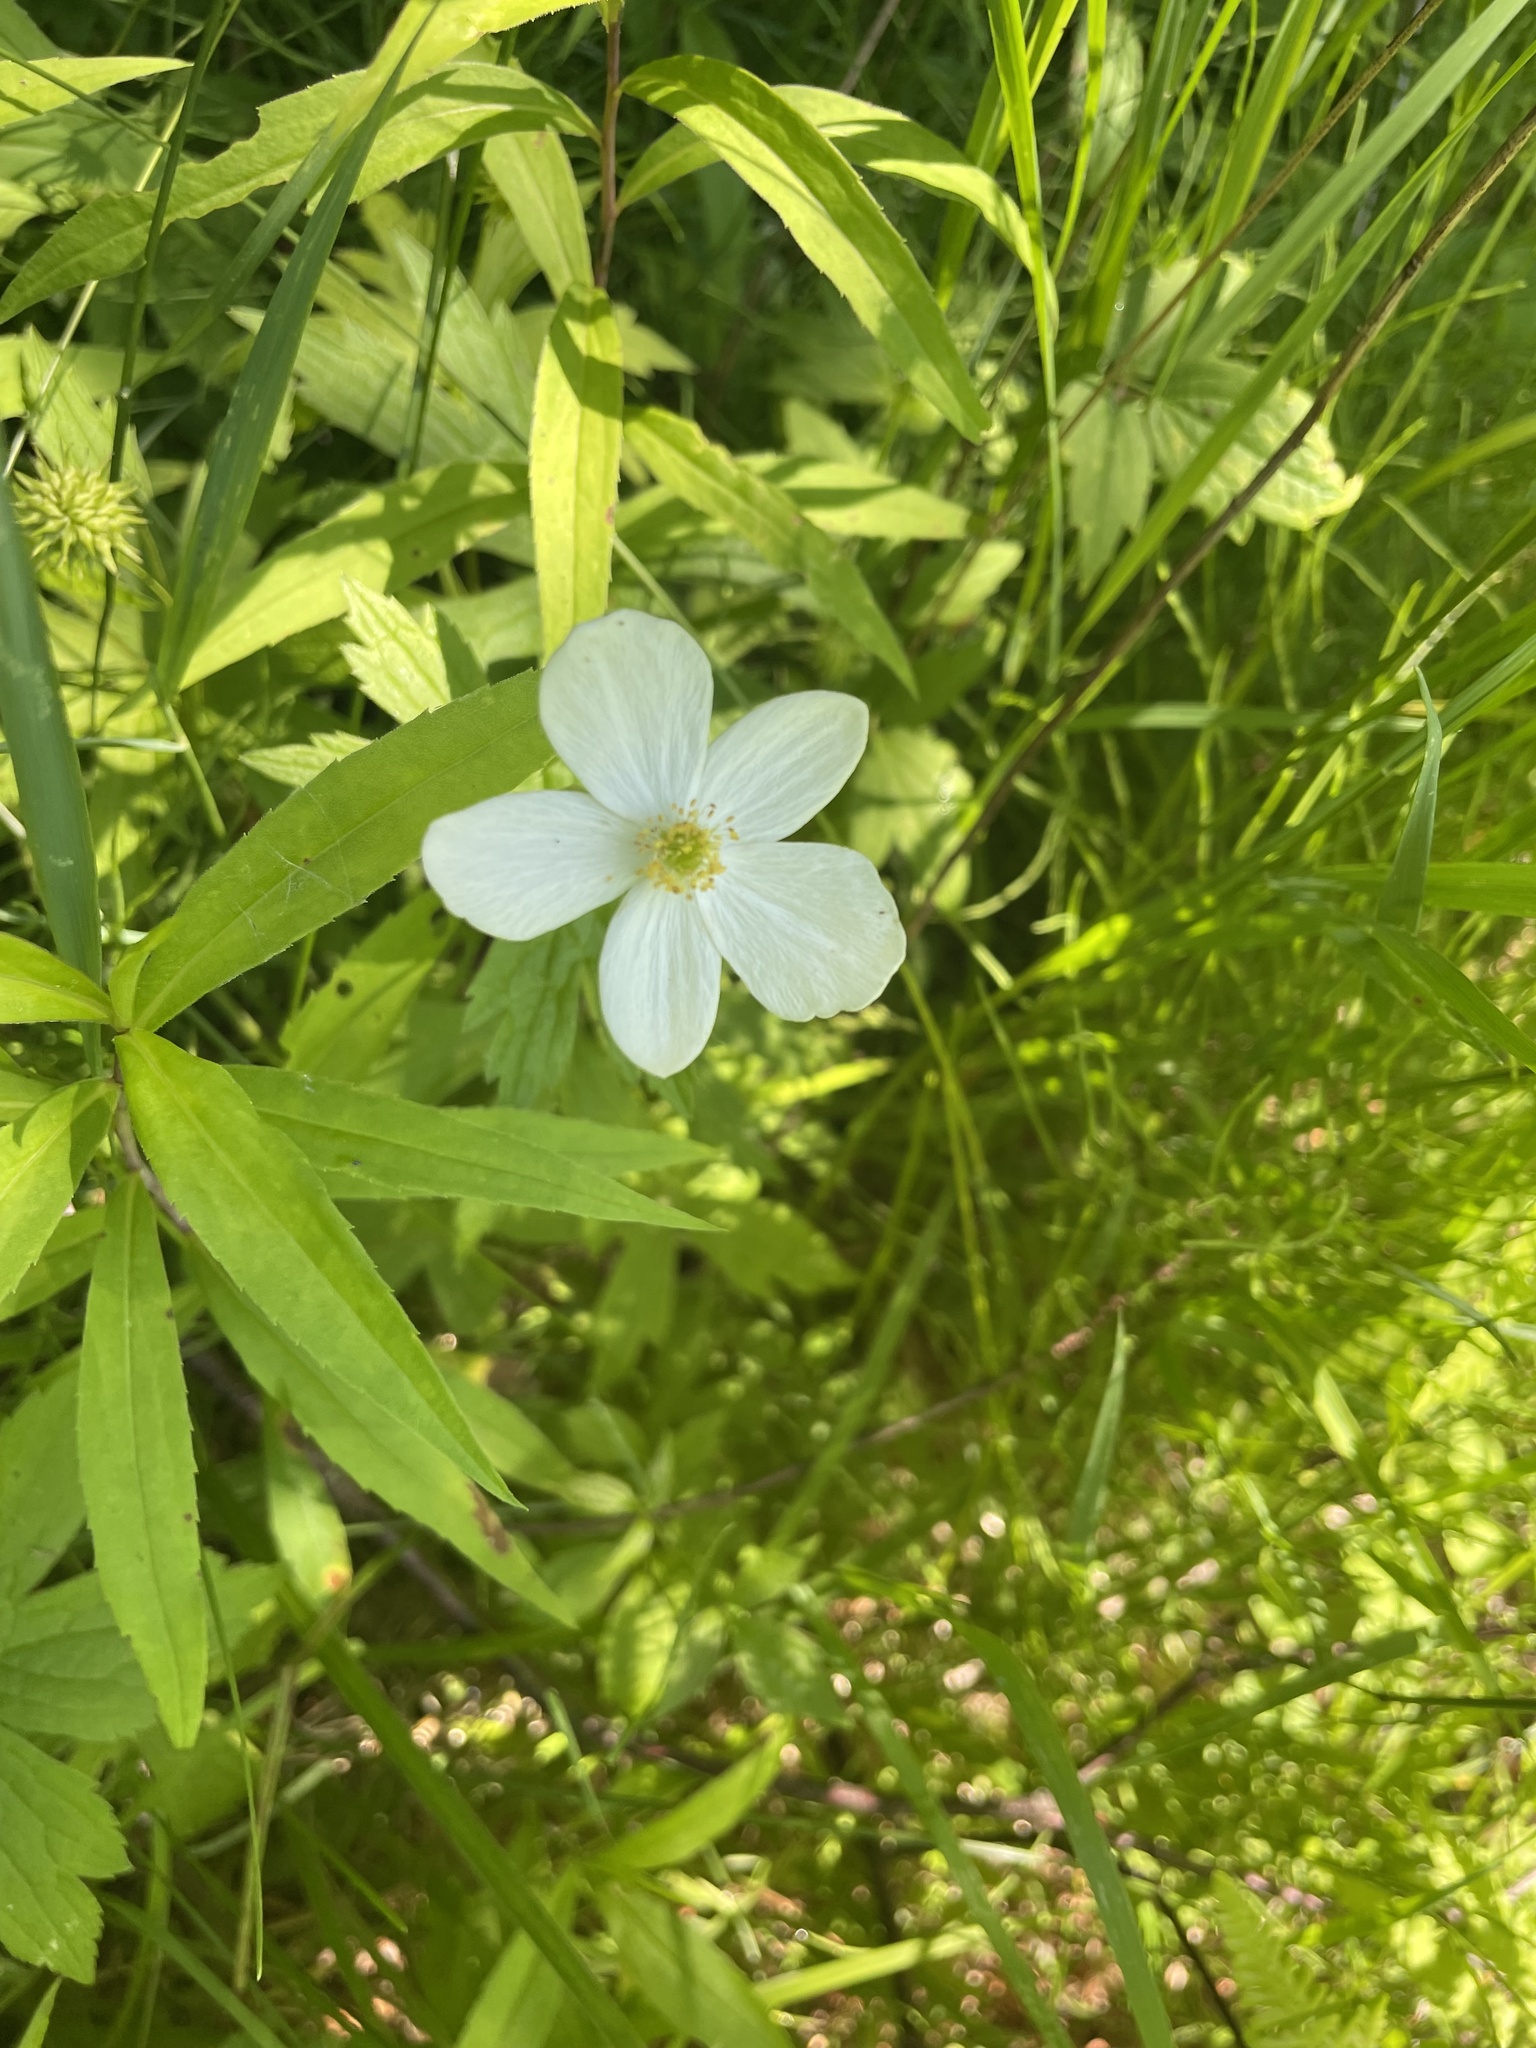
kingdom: Plantae
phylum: Tracheophyta
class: Magnoliopsida
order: Ranunculales
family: Ranunculaceae
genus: Anemonastrum
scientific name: Anemonastrum canadense
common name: Canada anemone
